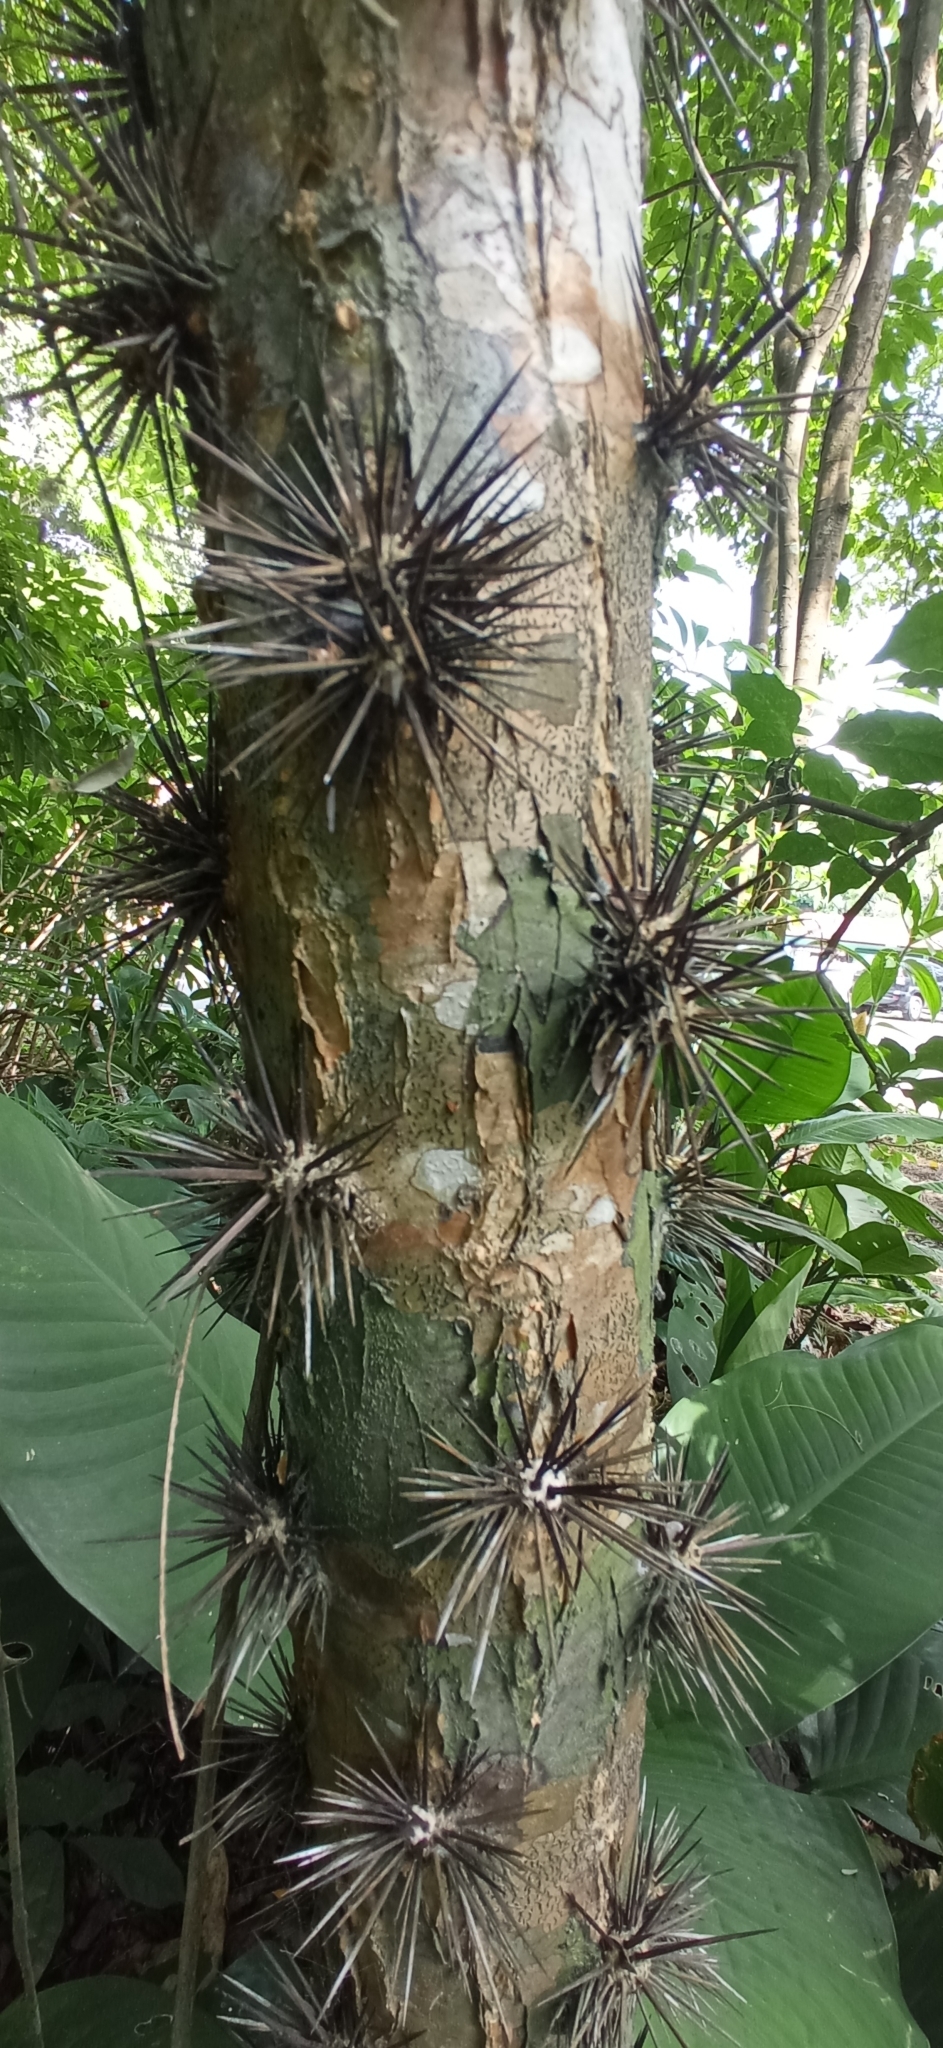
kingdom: Plantae
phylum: Tracheophyta
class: Magnoliopsida
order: Caryophyllales
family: Cactaceae
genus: Leuenbergeria
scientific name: Leuenbergeria bleo
